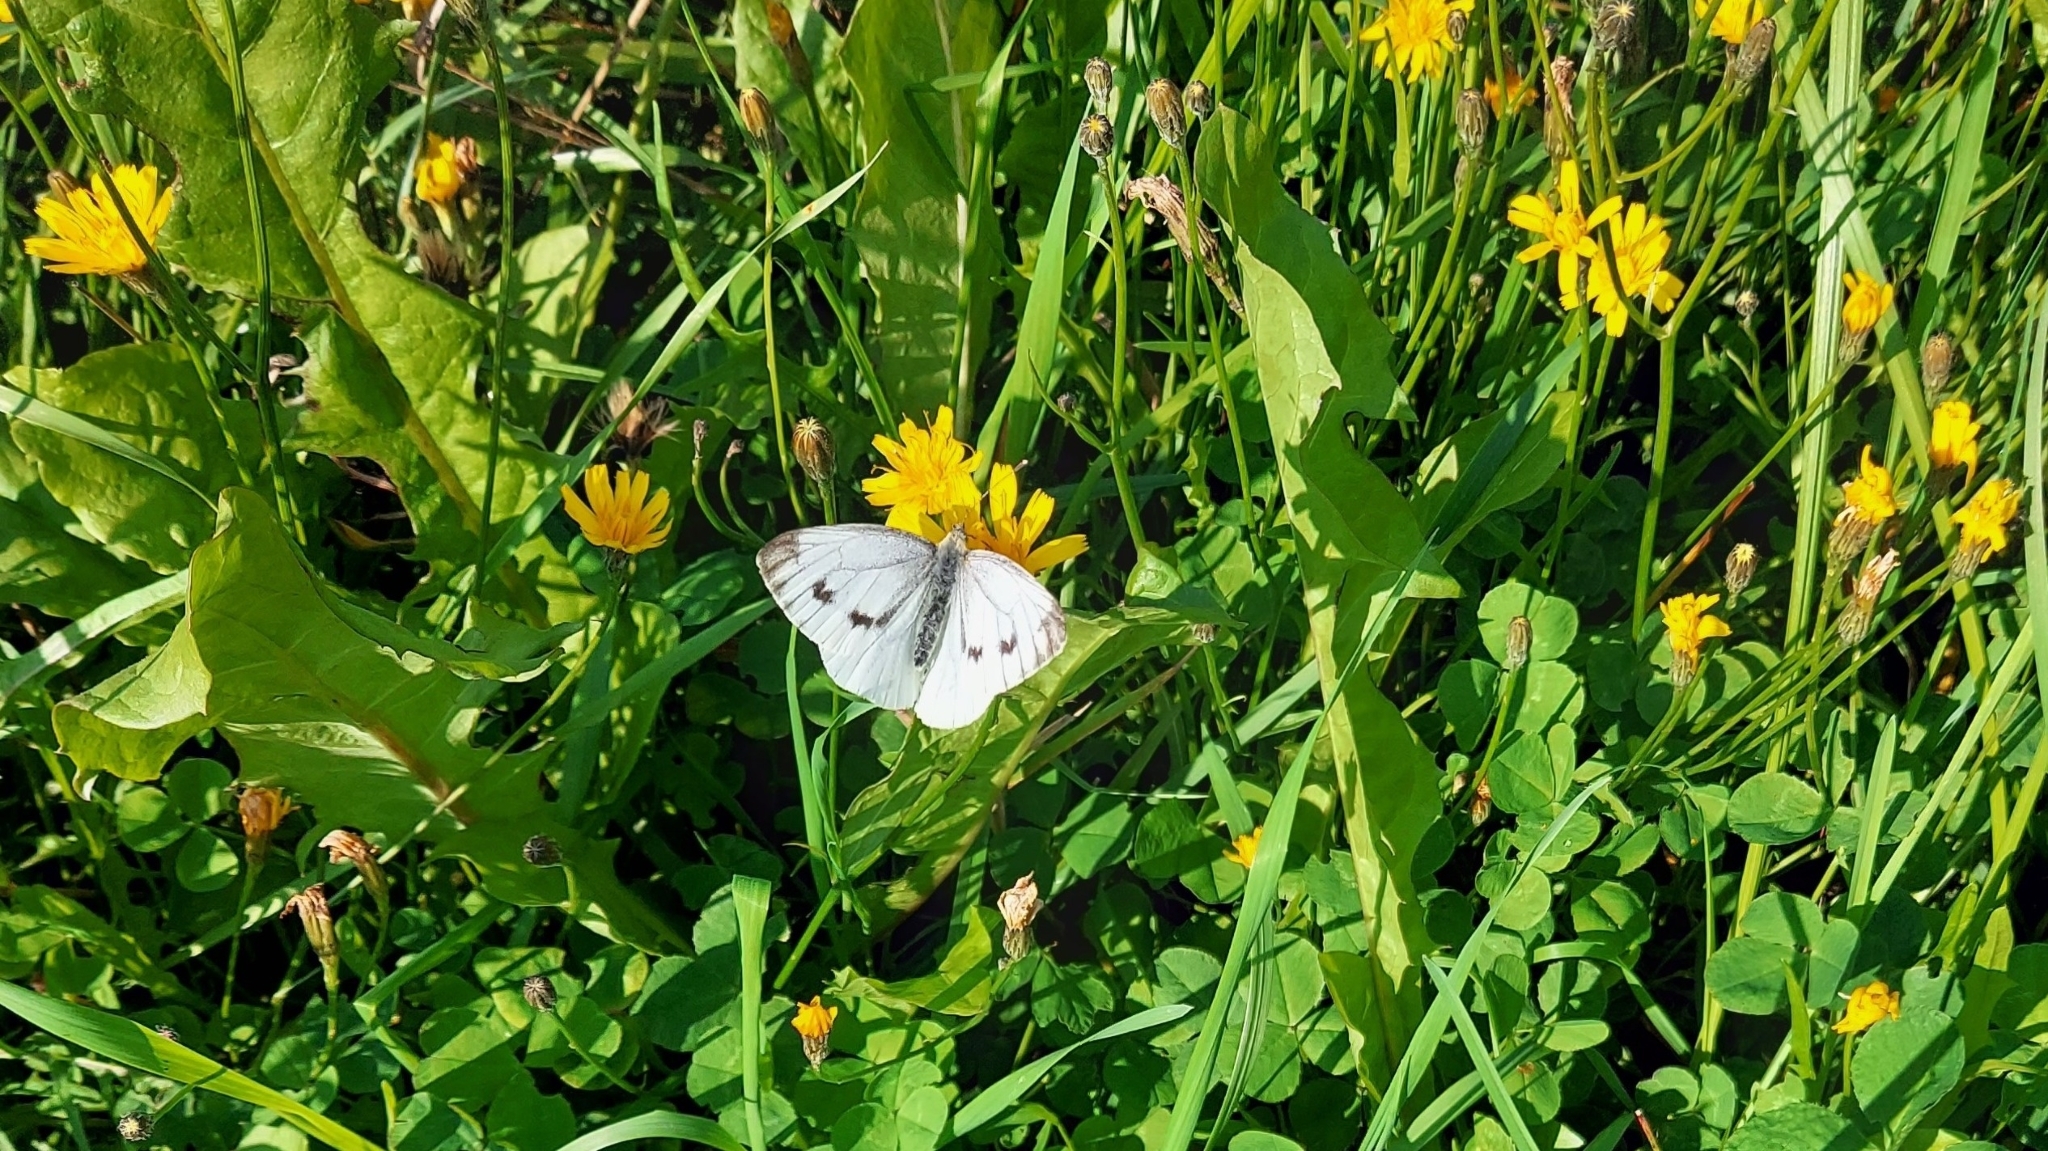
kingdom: Animalia
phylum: Arthropoda
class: Insecta
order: Lepidoptera
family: Pieridae
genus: Pieris
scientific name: Pieris napi
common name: Green-veined white
